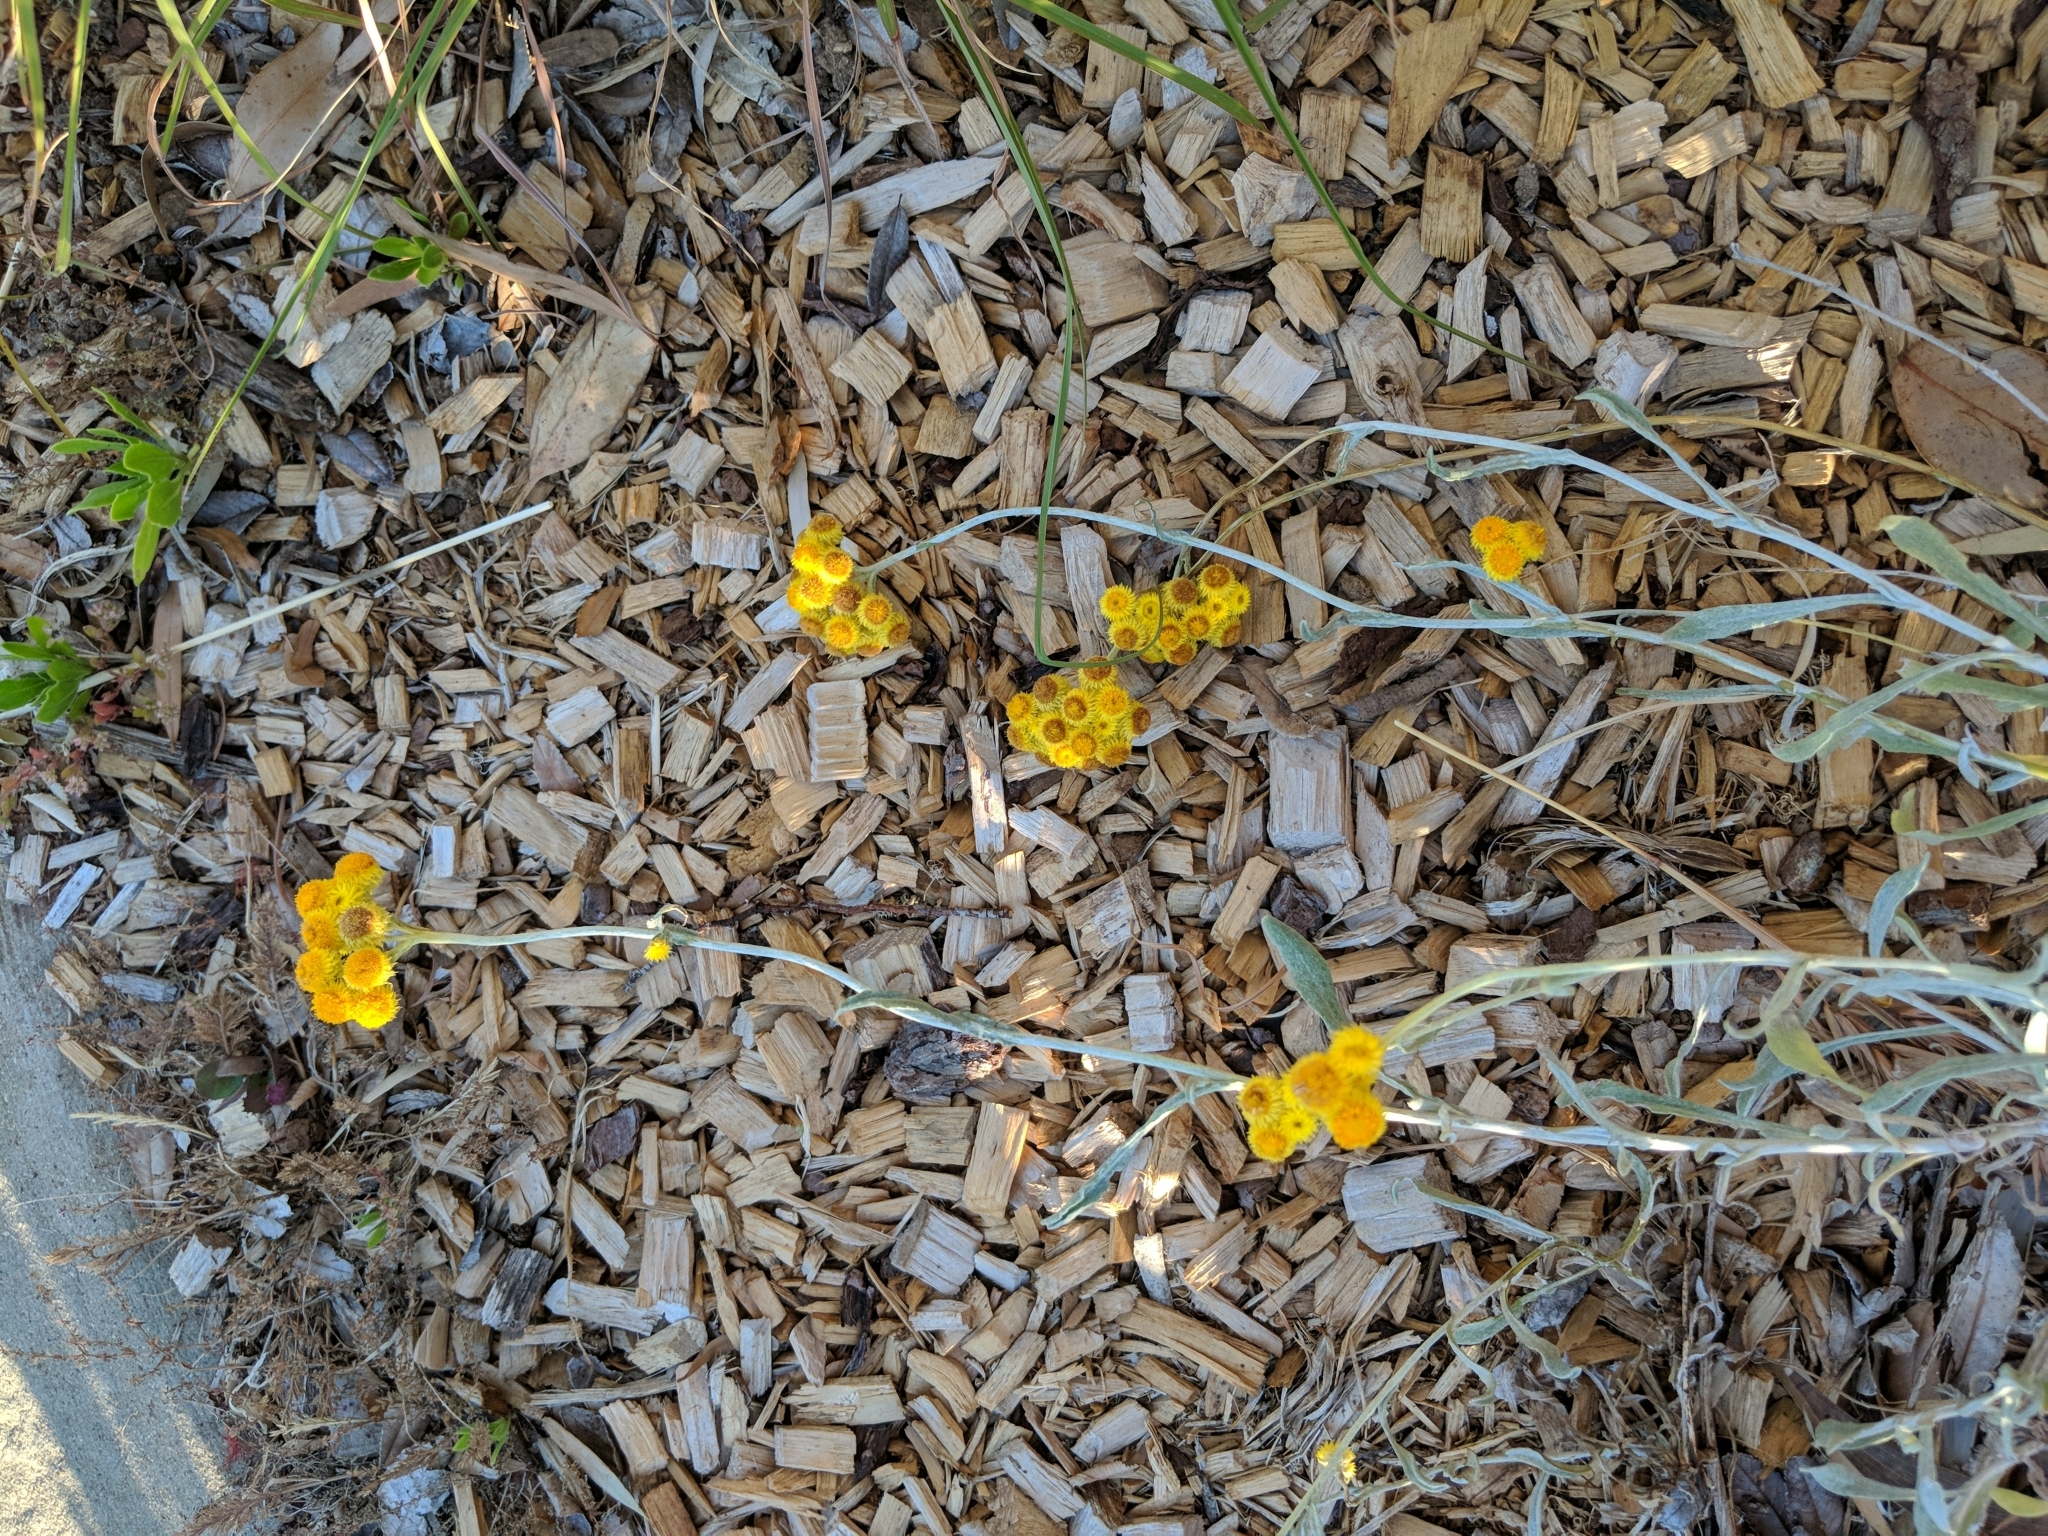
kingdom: Plantae
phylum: Tracheophyta
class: Magnoliopsida
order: Asterales
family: Asteraceae
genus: Chrysocephalum
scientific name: Chrysocephalum apiculatum
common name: Common everlasting
